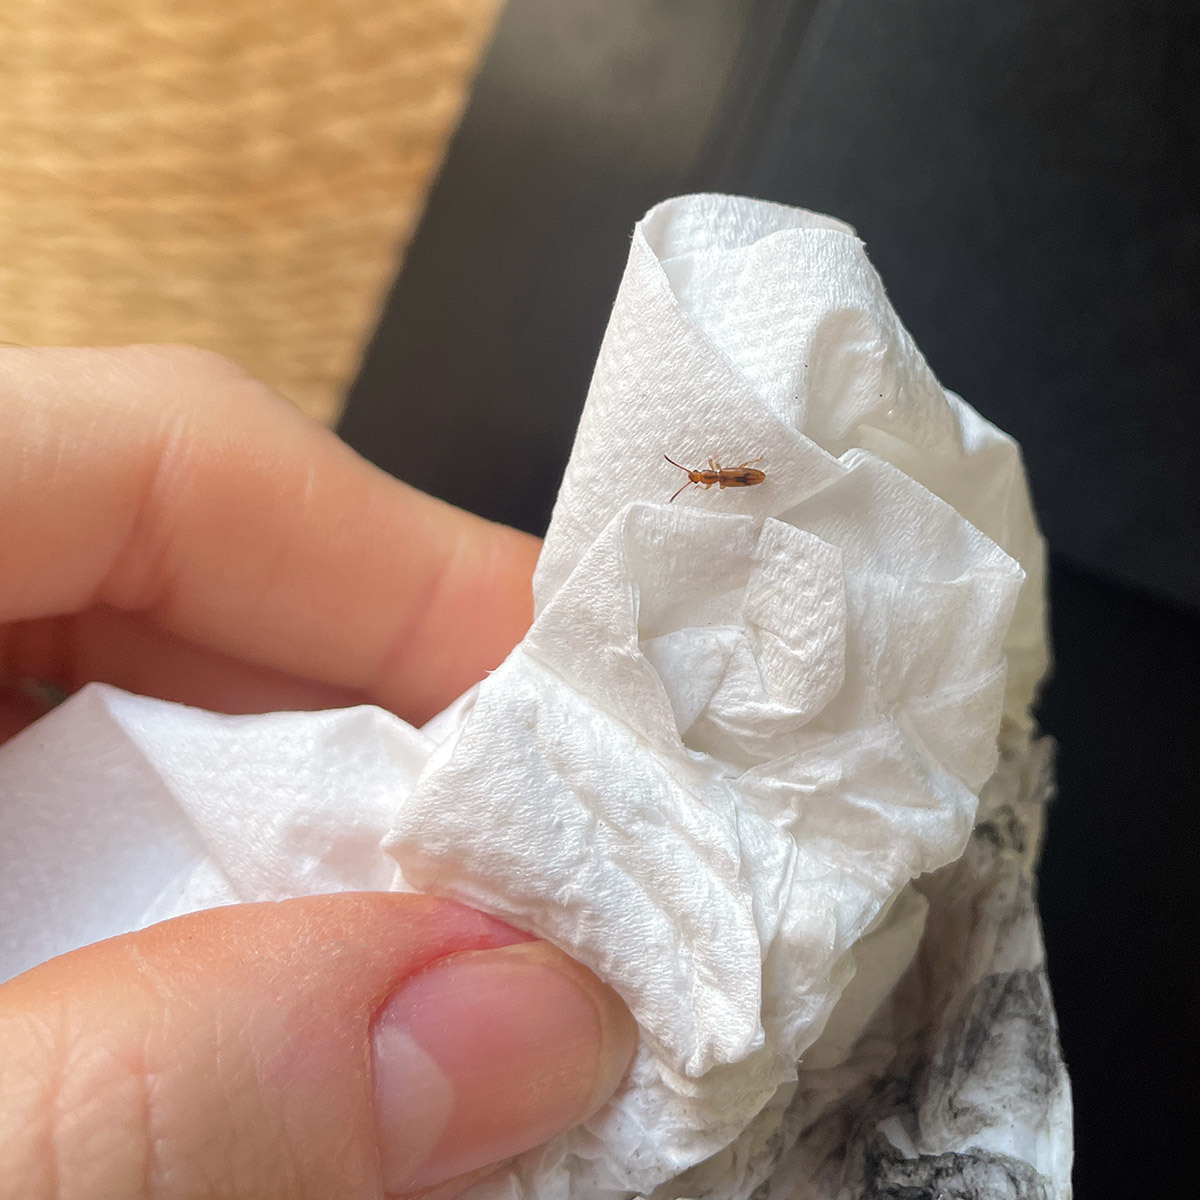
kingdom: Animalia
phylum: Arthropoda
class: Insecta
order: Coleoptera
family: Silvanidae
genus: Cryptamorpha
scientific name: Cryptamorpha desjardinsi
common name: Cryptamorpha
